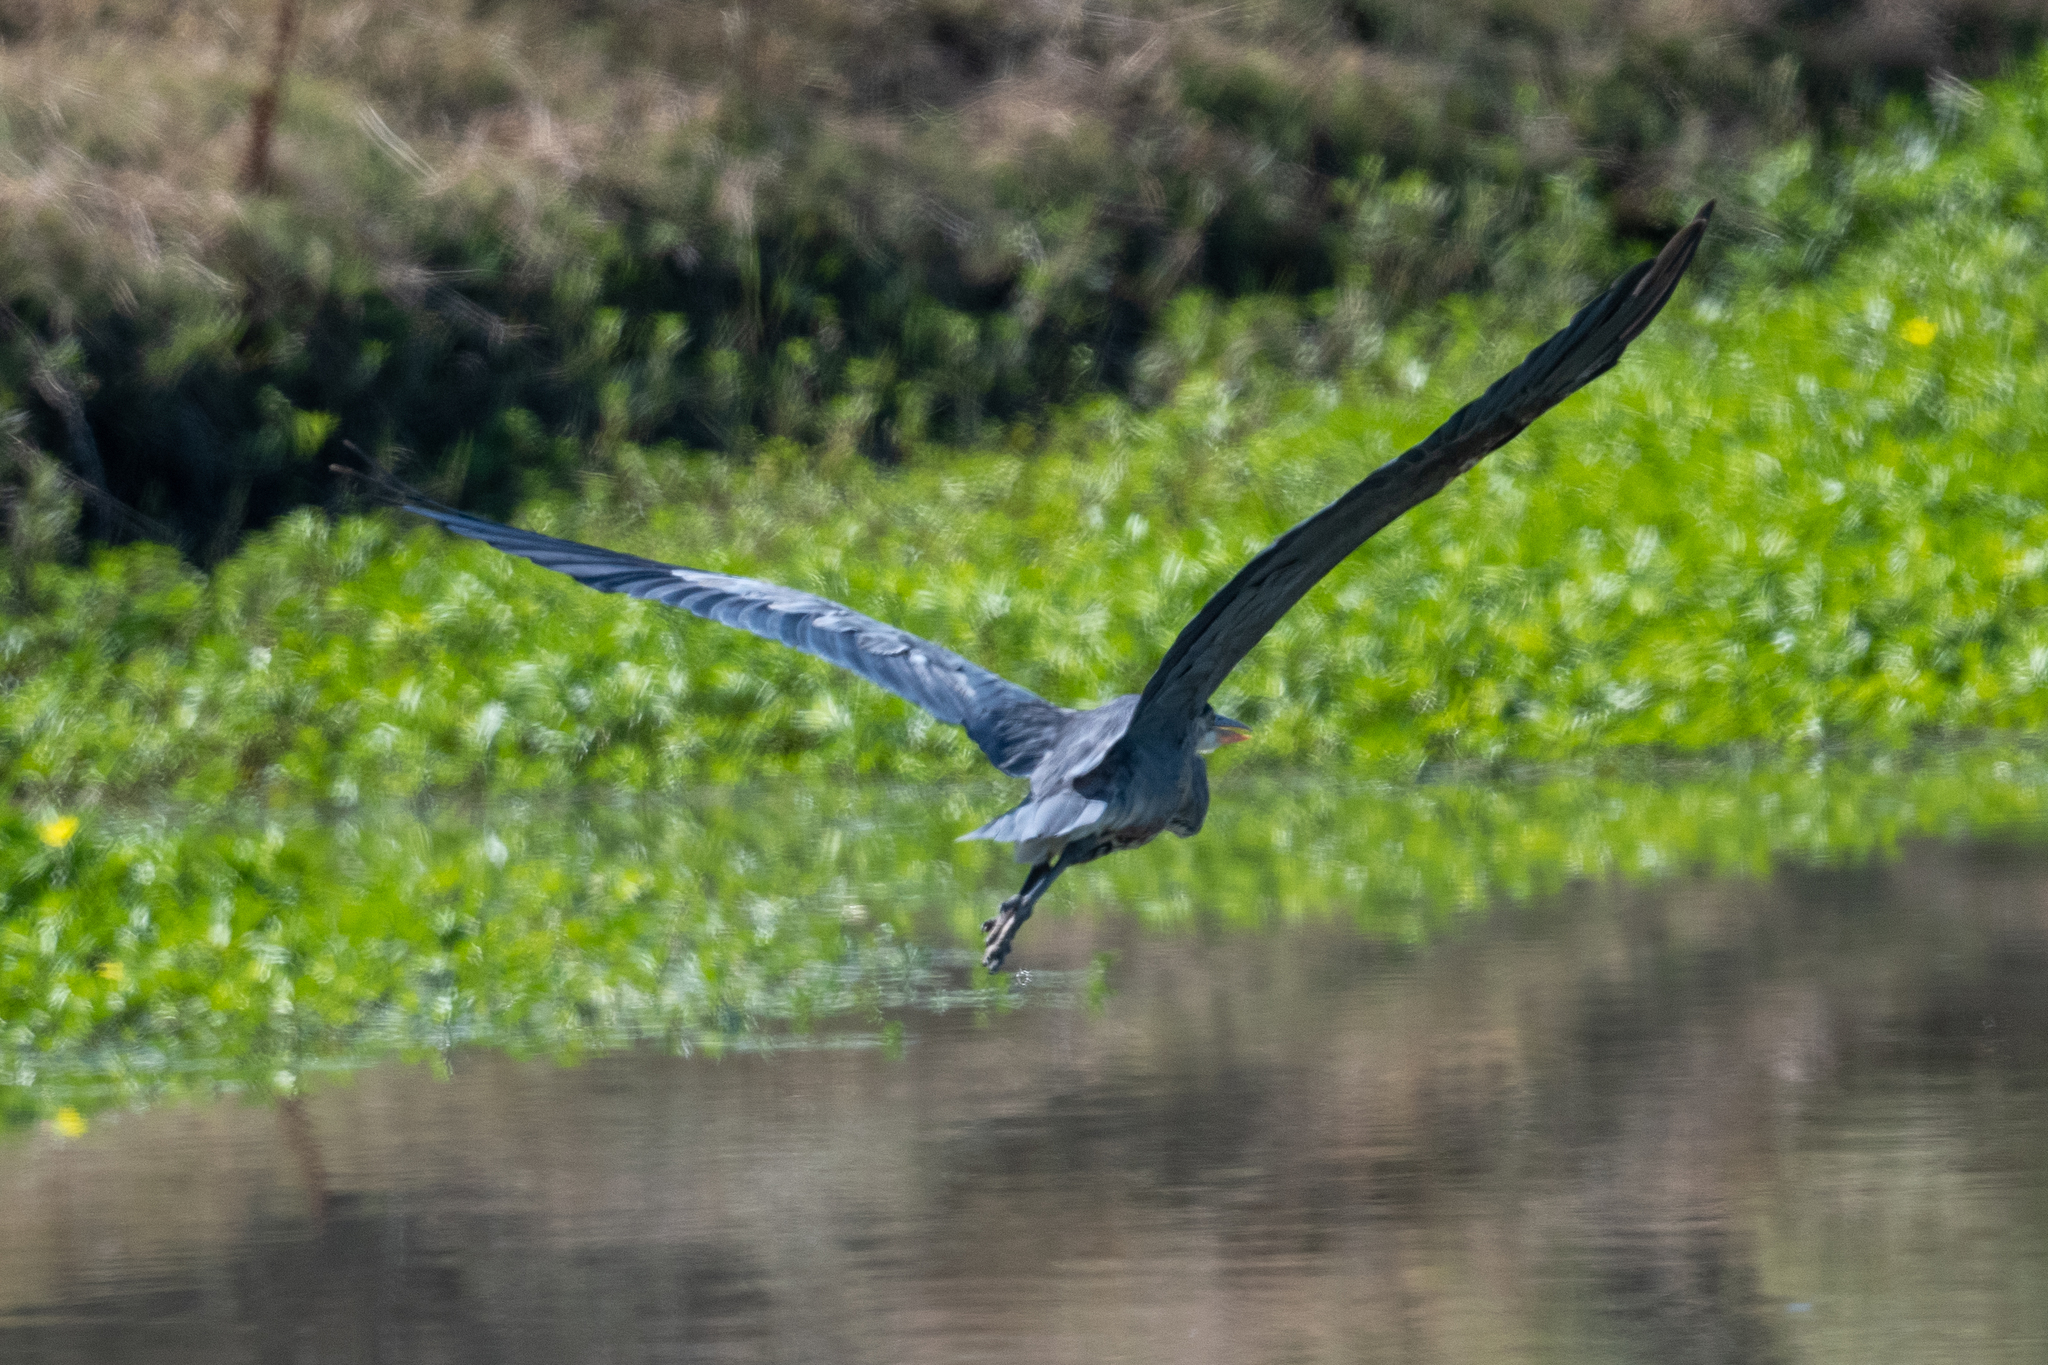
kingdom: Animalia
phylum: Chordata
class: Aves
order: Pelecaniformes
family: Ardeidae
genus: Ardea
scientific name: Ardea herodias
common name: Great blue heron
